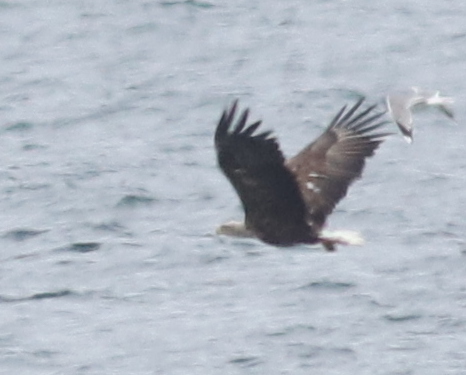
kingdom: Animalia
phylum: Chordata
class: Aves
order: Accipitriformes
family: Accipitridae
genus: Haliaeetus
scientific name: Haliaeetus albicilla
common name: White-tailed eagle
